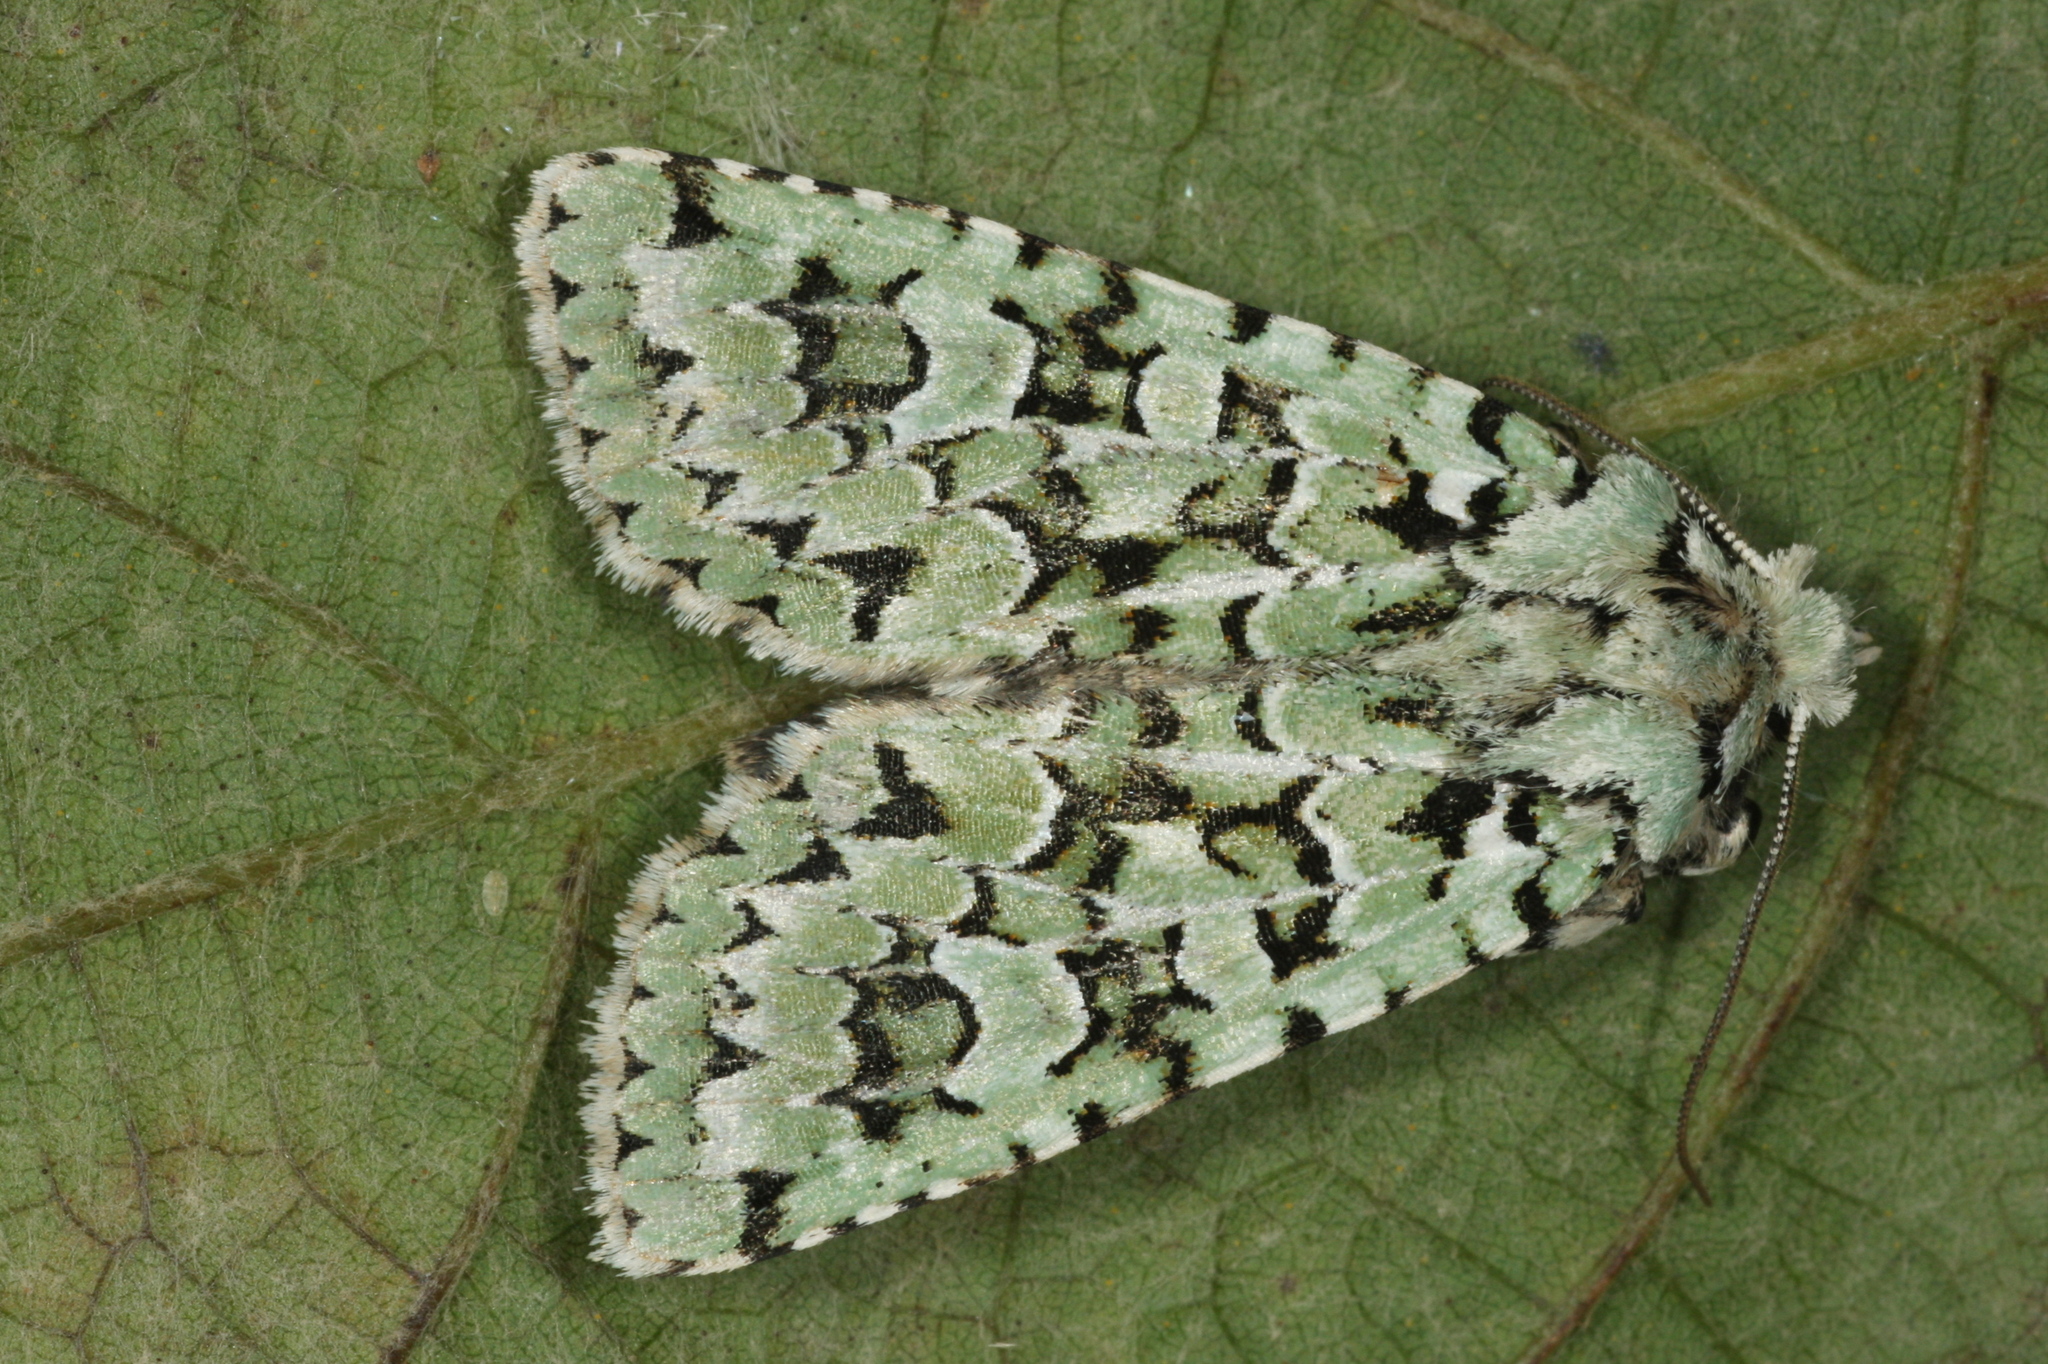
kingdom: Animalia
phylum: Arthropoda
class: Insecta
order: Lepidoptera
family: Noctuidae
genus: Griposia
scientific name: Griposia aprilina
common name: Merveille du jour
